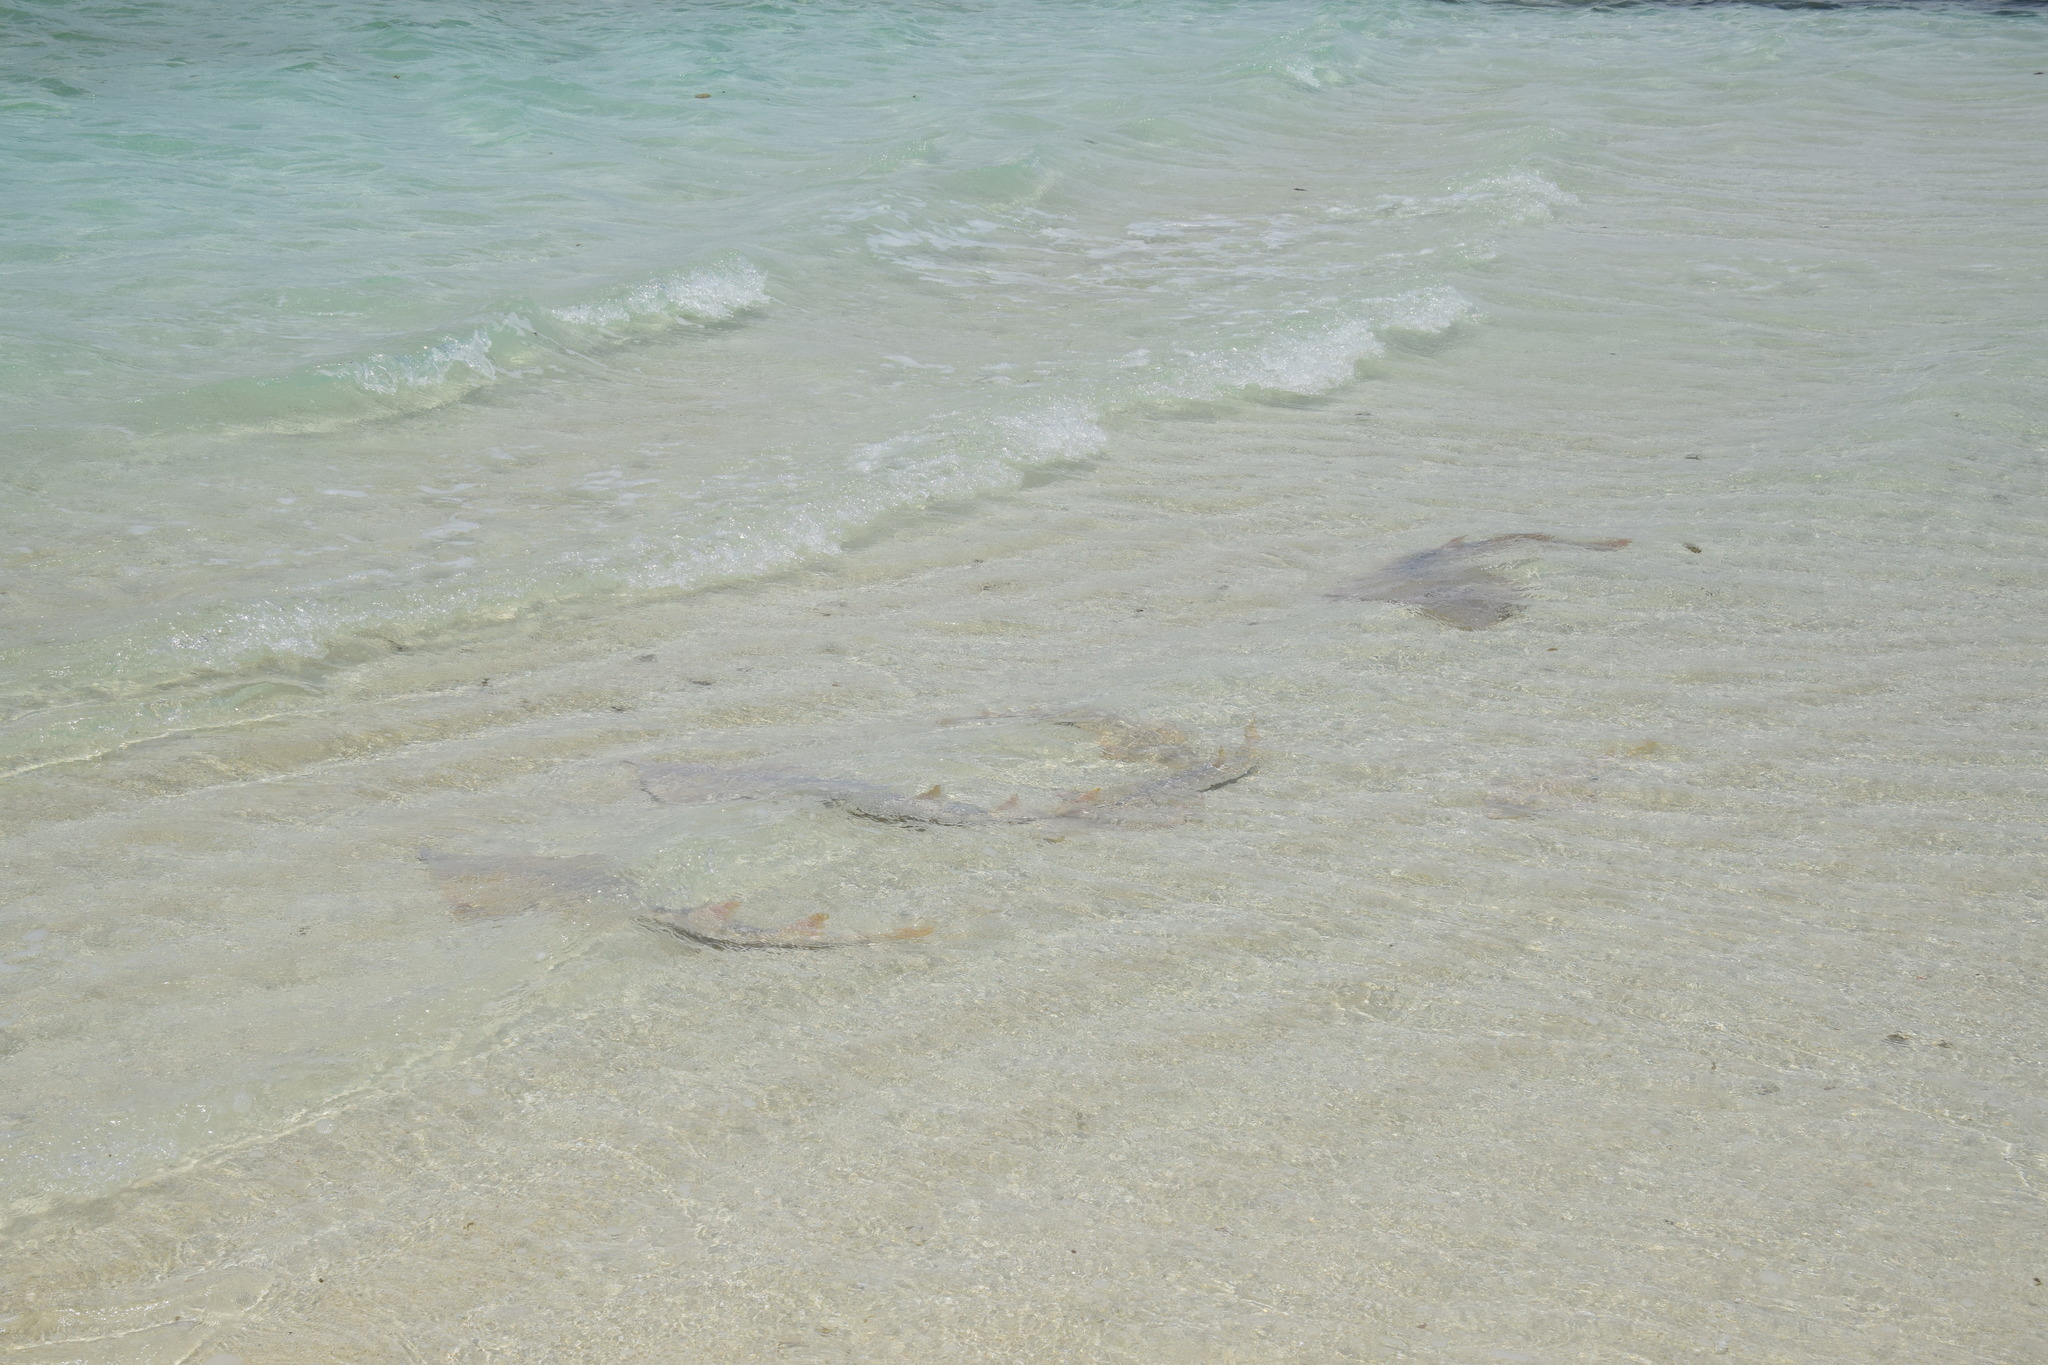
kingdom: Animalia
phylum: Chordata
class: Elasmobranchii
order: Rhinopristiformes
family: Glaucostegidae
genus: Glaucostegus
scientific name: Glaucostegus typus
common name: Giant shovelnose ray
